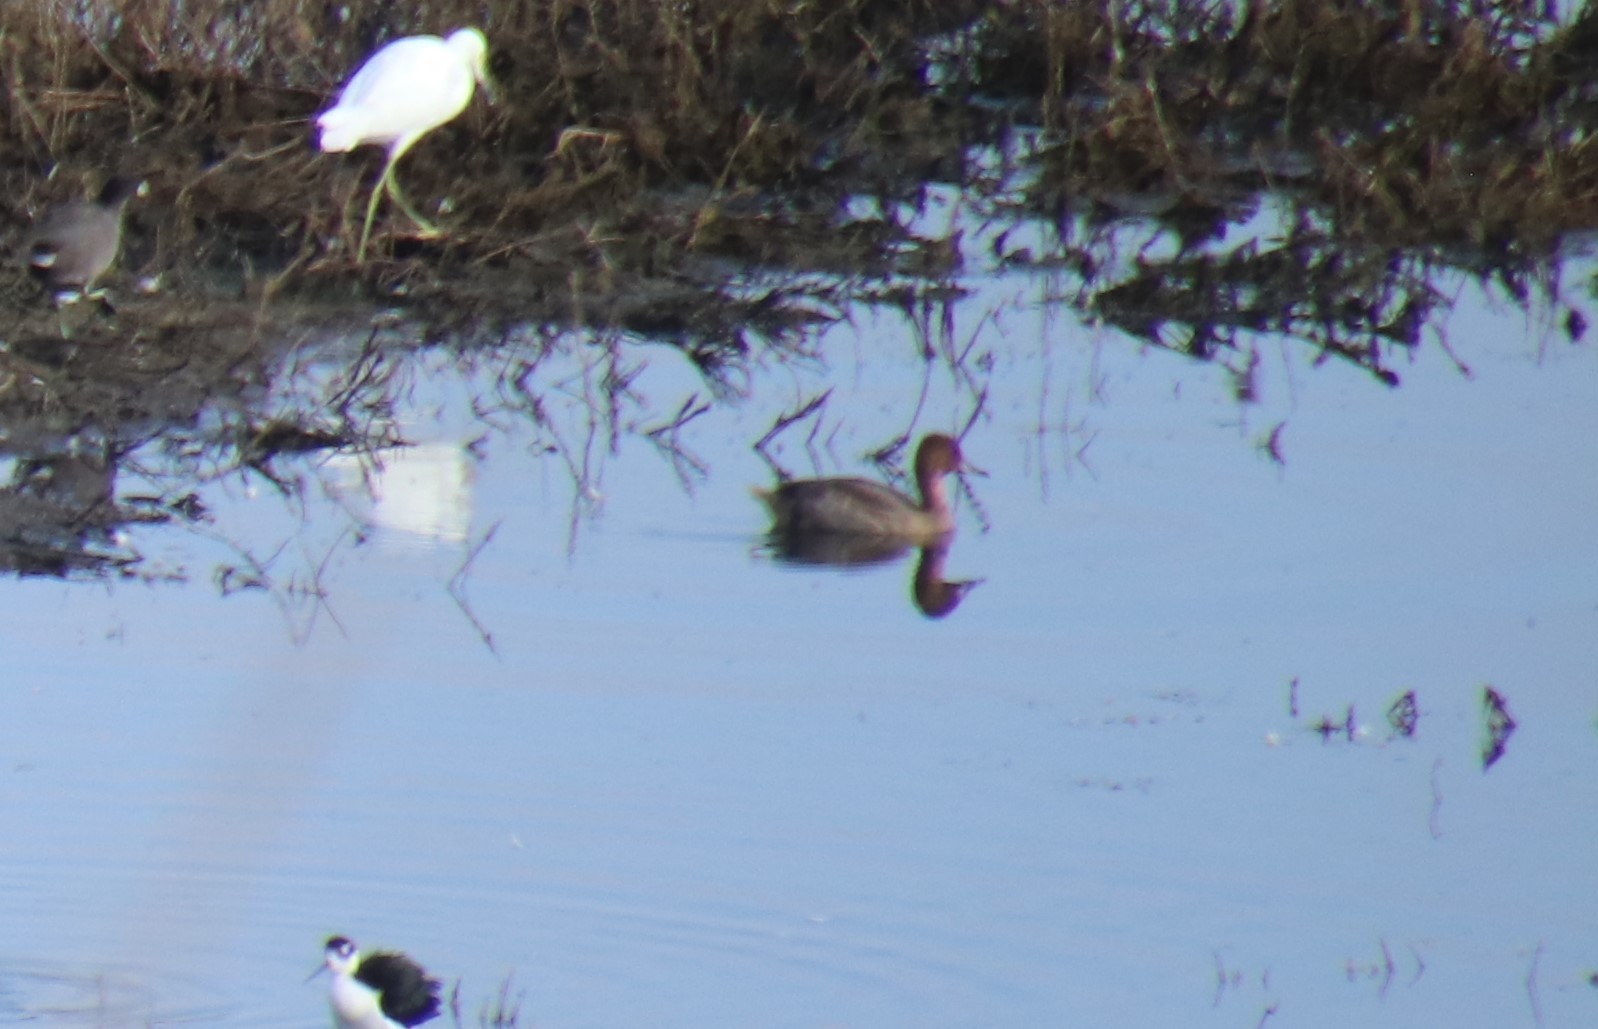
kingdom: Animalia
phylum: Chordata
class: Aves
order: Anseriformes
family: Anatidae
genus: Anas
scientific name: Anas acuta
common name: Northern pintail
